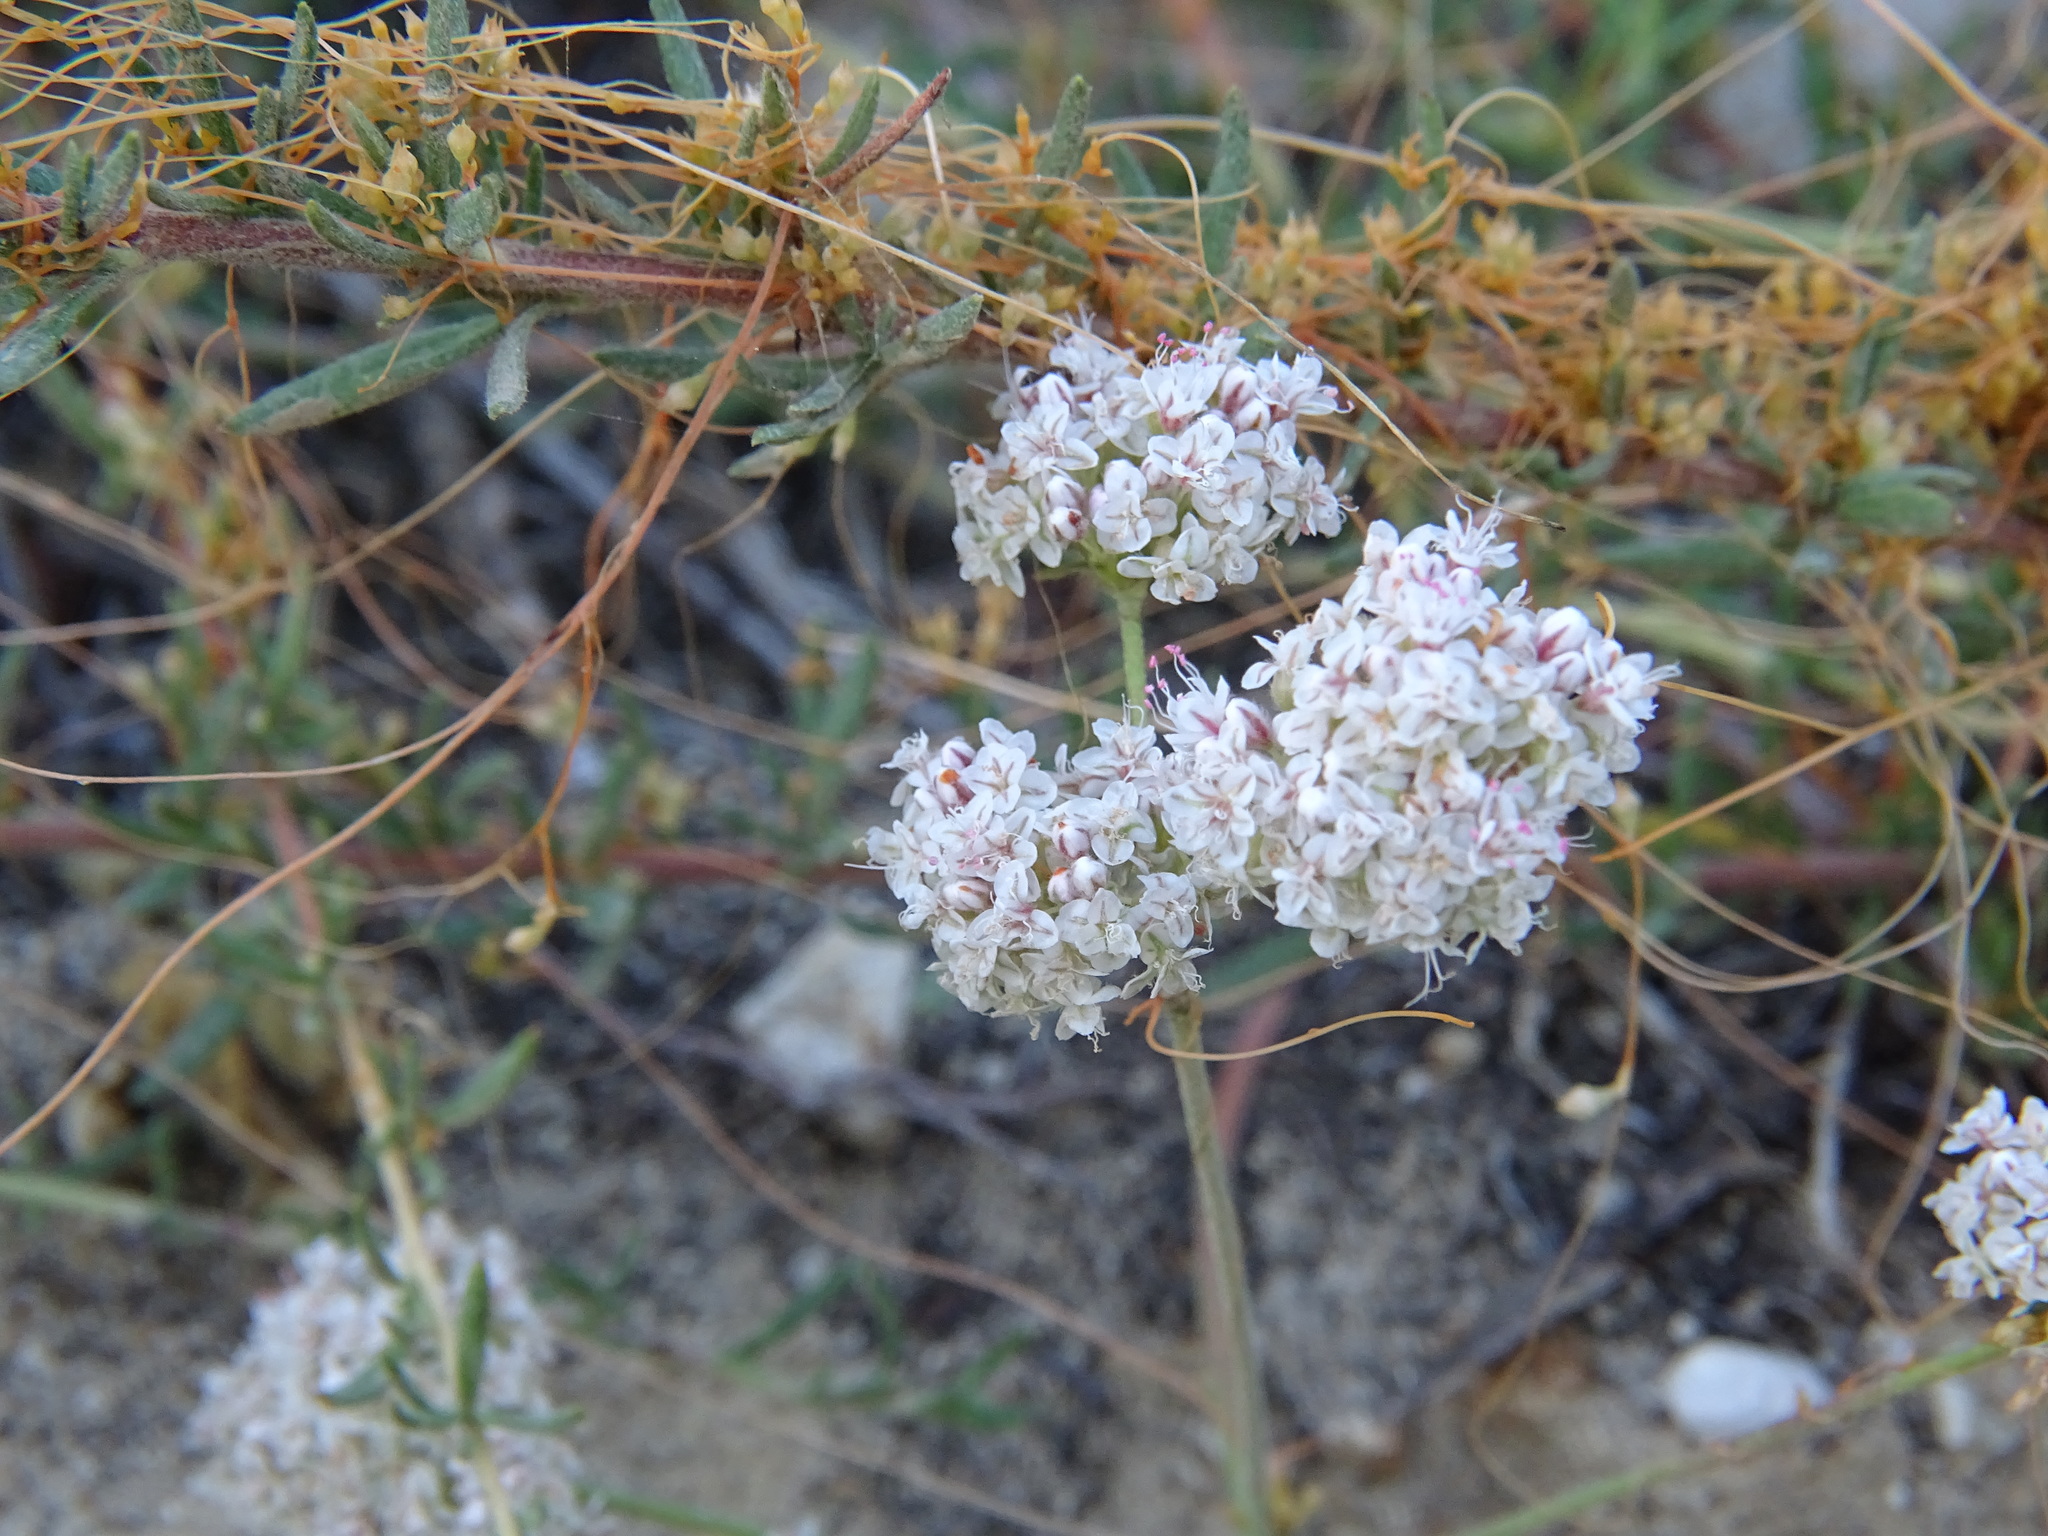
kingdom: Plantae
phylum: Tracheophyta
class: Magnoliopsida
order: Caryophyllales
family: Polygonaceae
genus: Eriogonum
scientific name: Eriogonum fasciculatum
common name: California wild buckwheat
